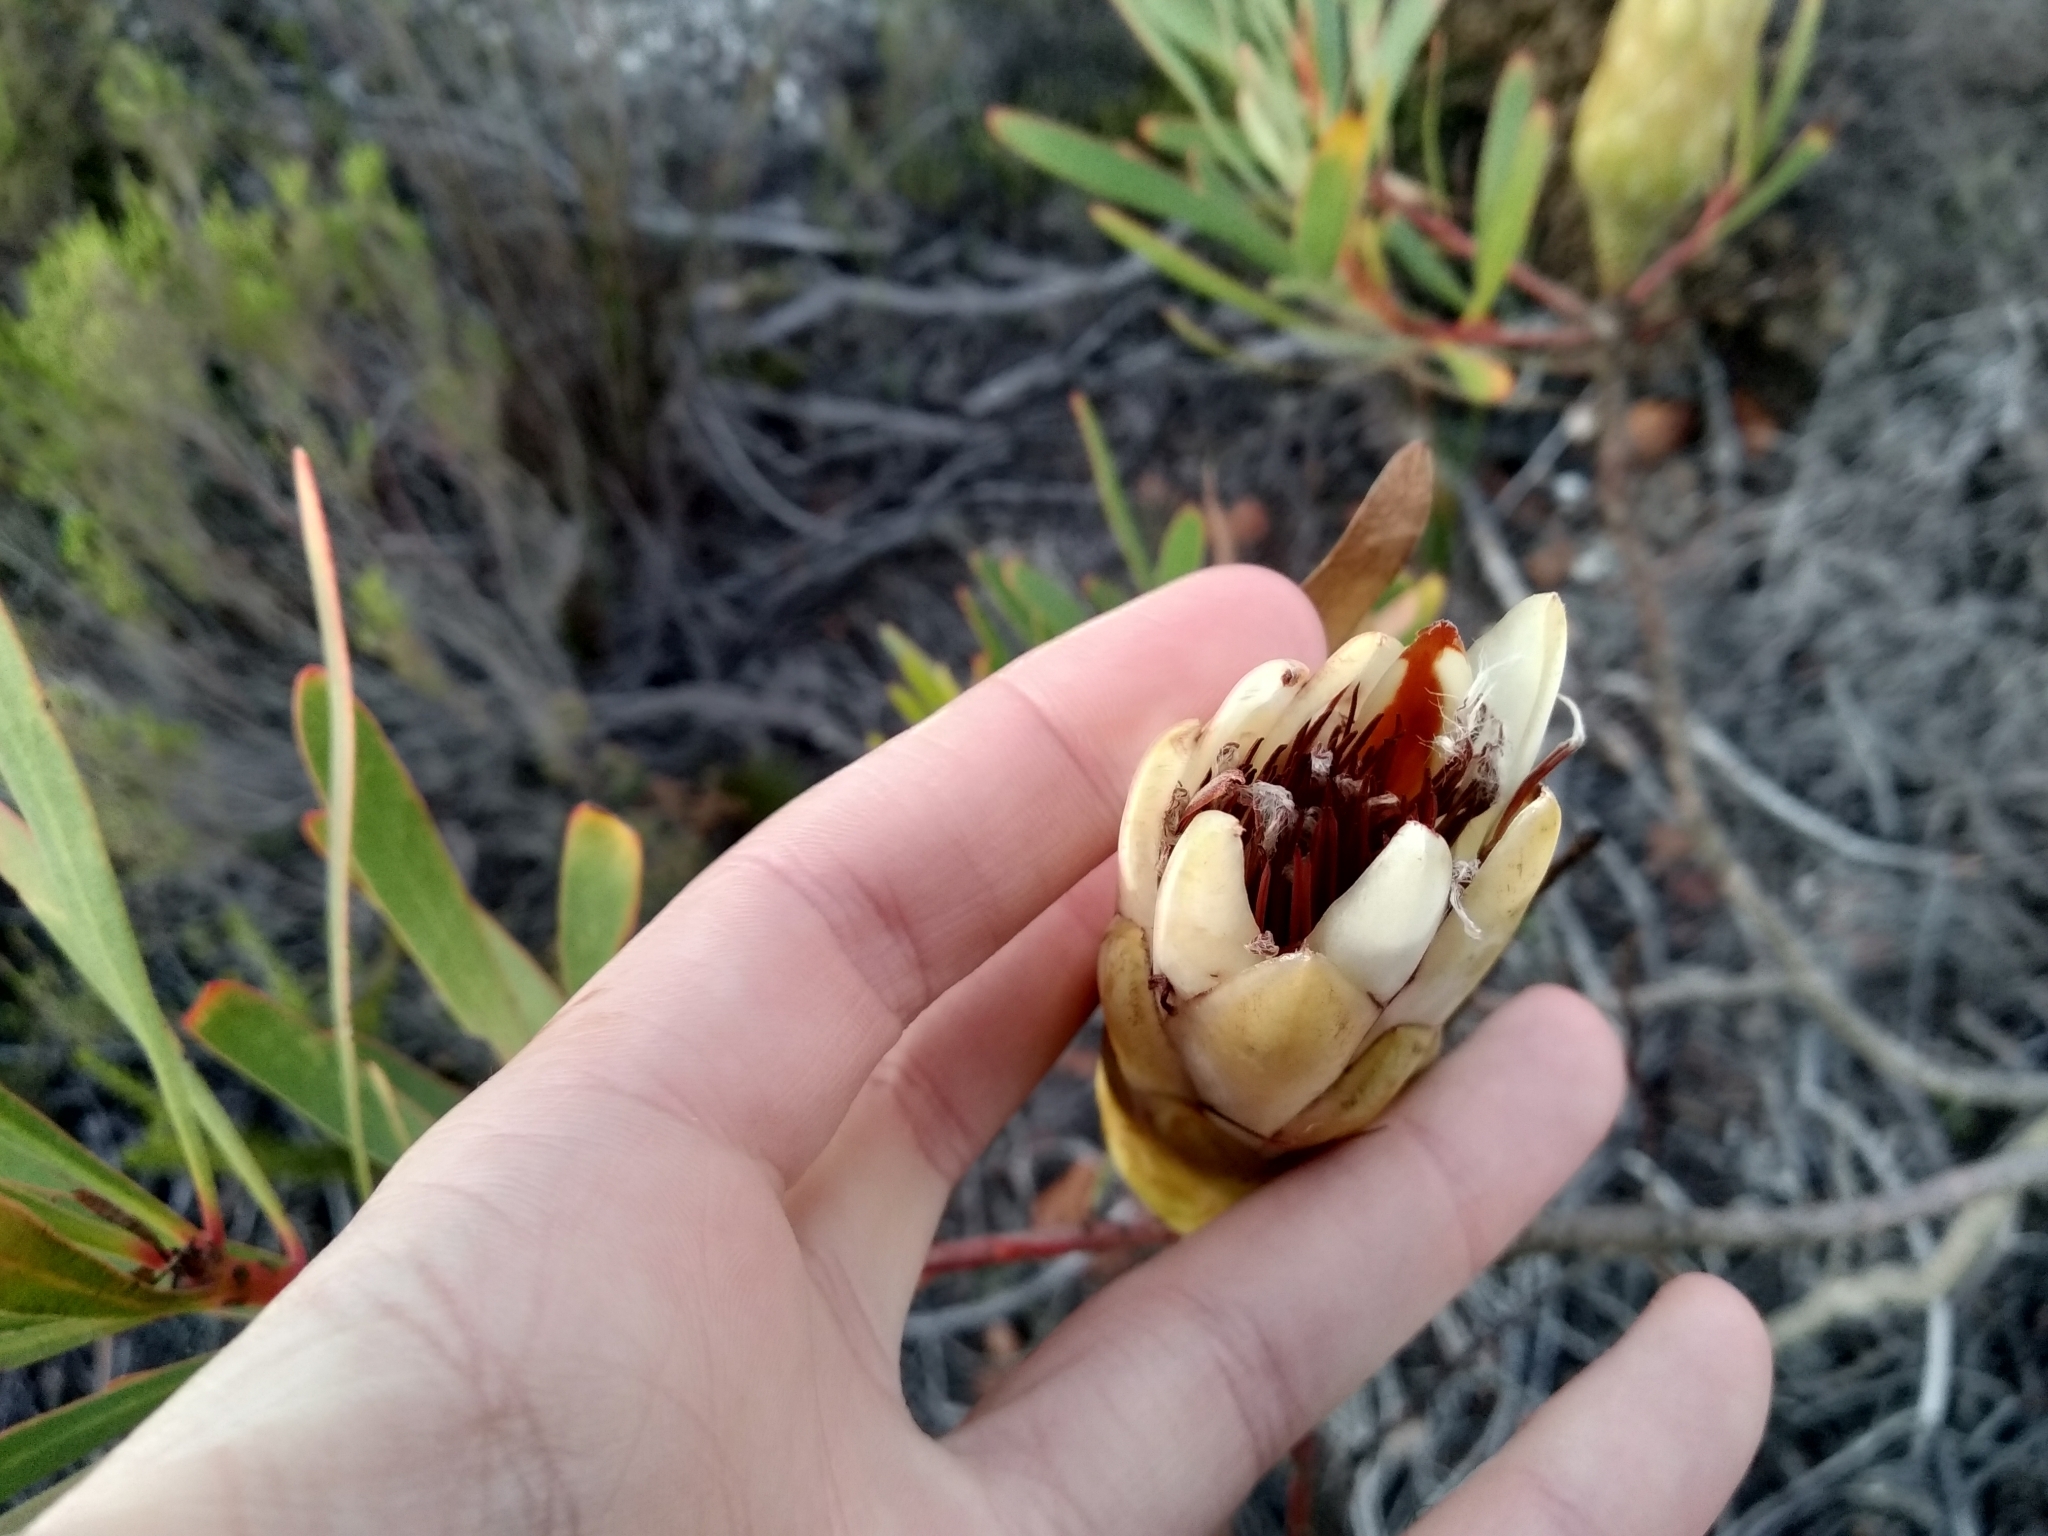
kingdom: Plantae
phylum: Tracheophyta
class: Magnoliopsida
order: Proteales
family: Proteaceae
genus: Protea
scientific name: Protea repens
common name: Sugarbush
